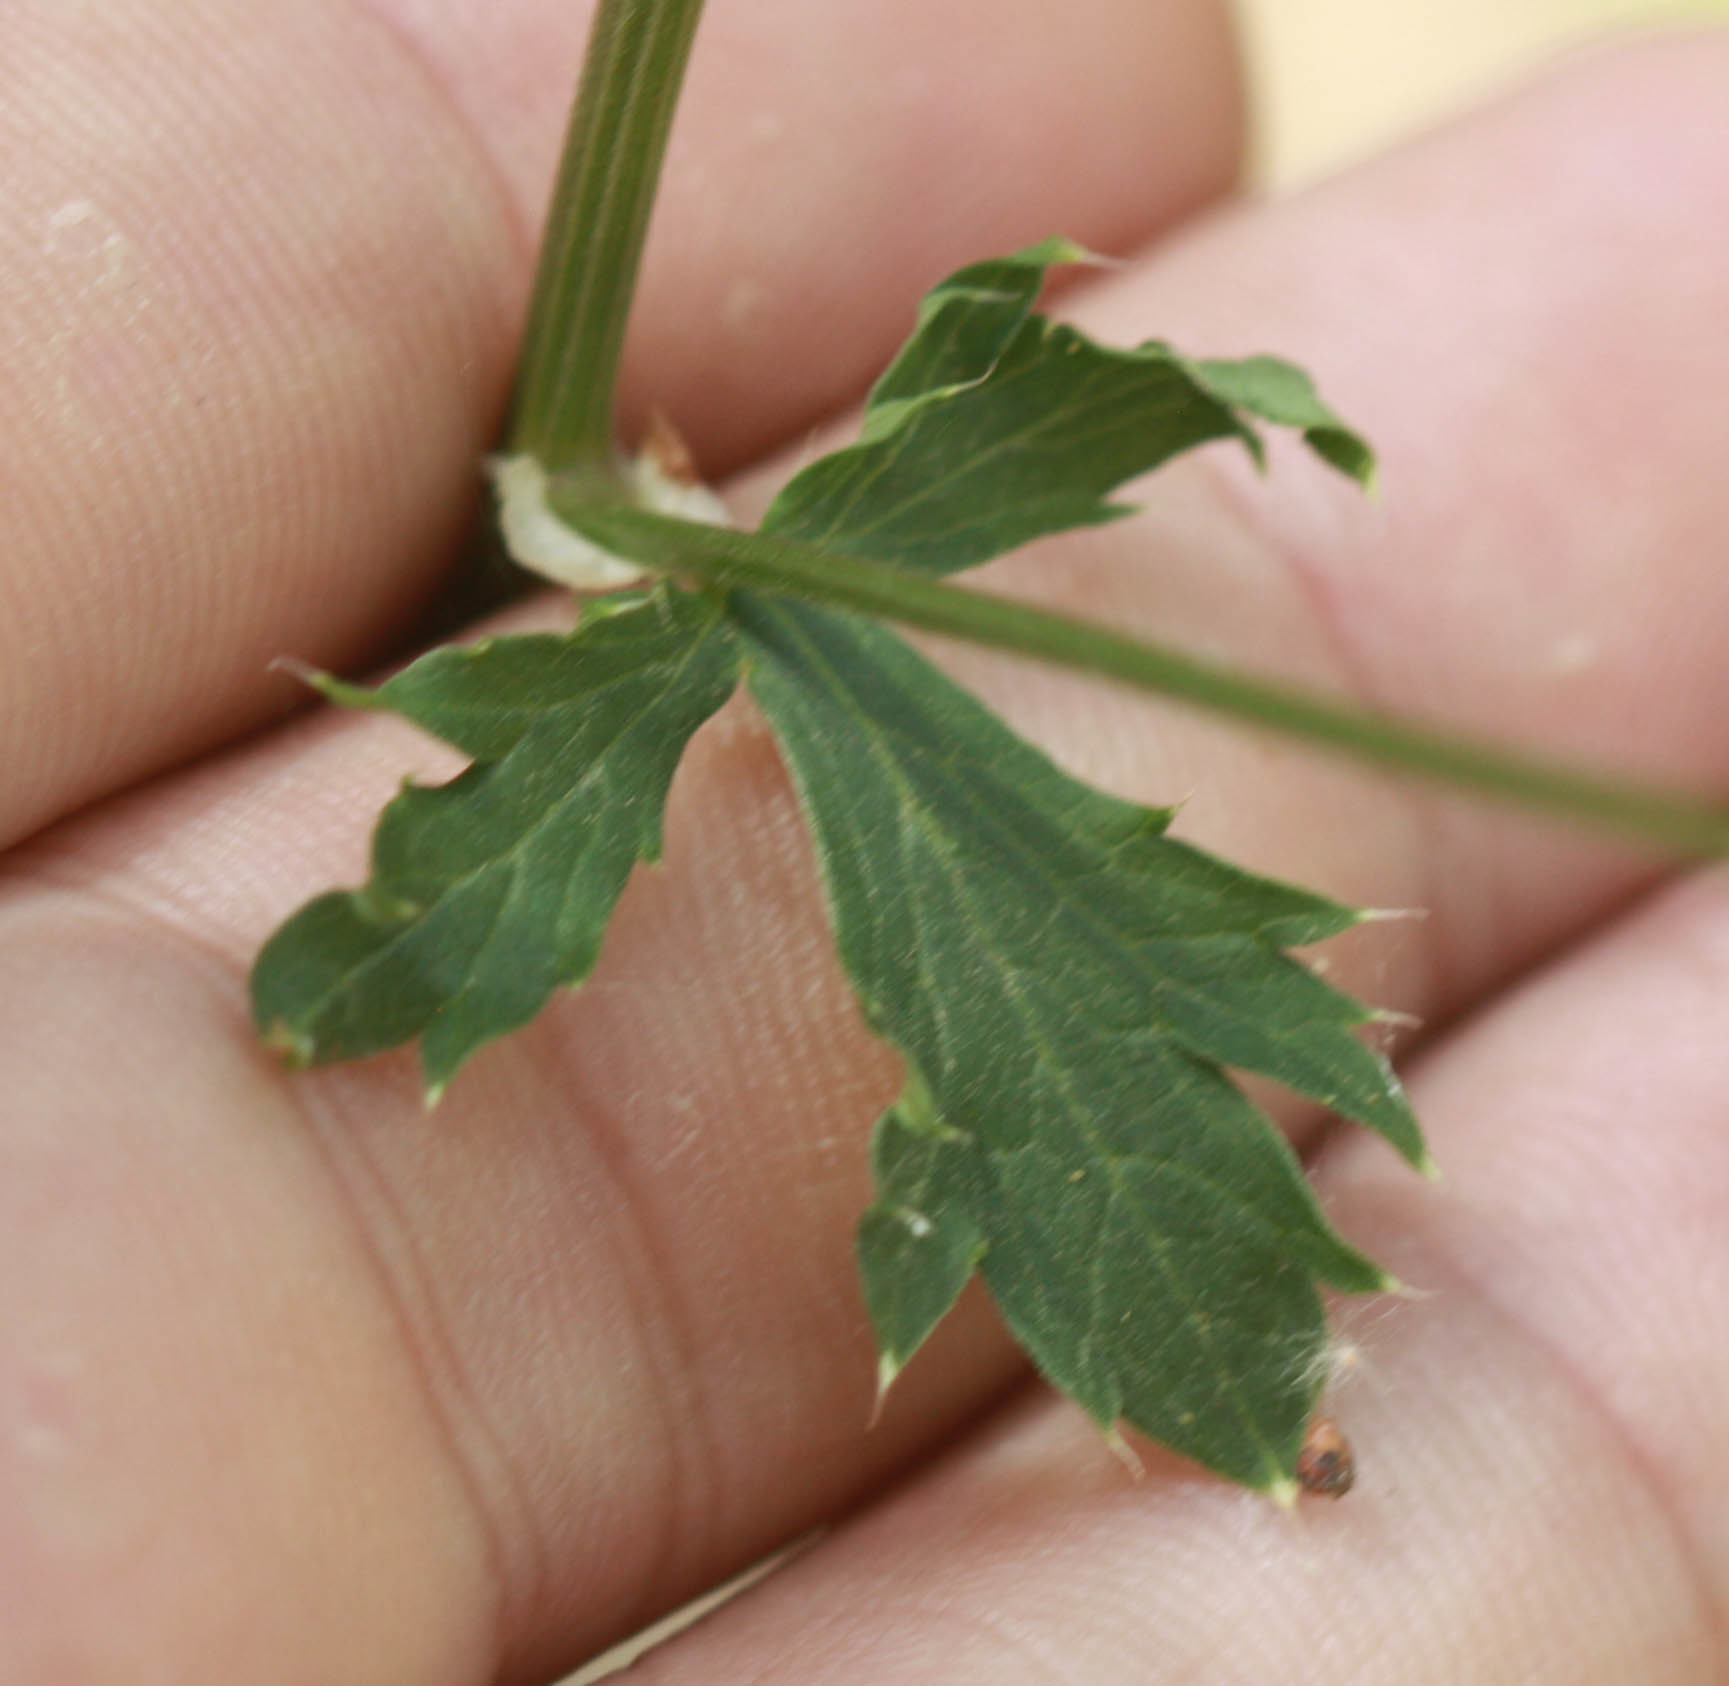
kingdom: Plantae
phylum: Tracheophyta
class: Magnoliopsida
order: Apiales
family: Apiaceae
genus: Sanicula
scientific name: Sanicula crassicaulis
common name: Western snakeroot
